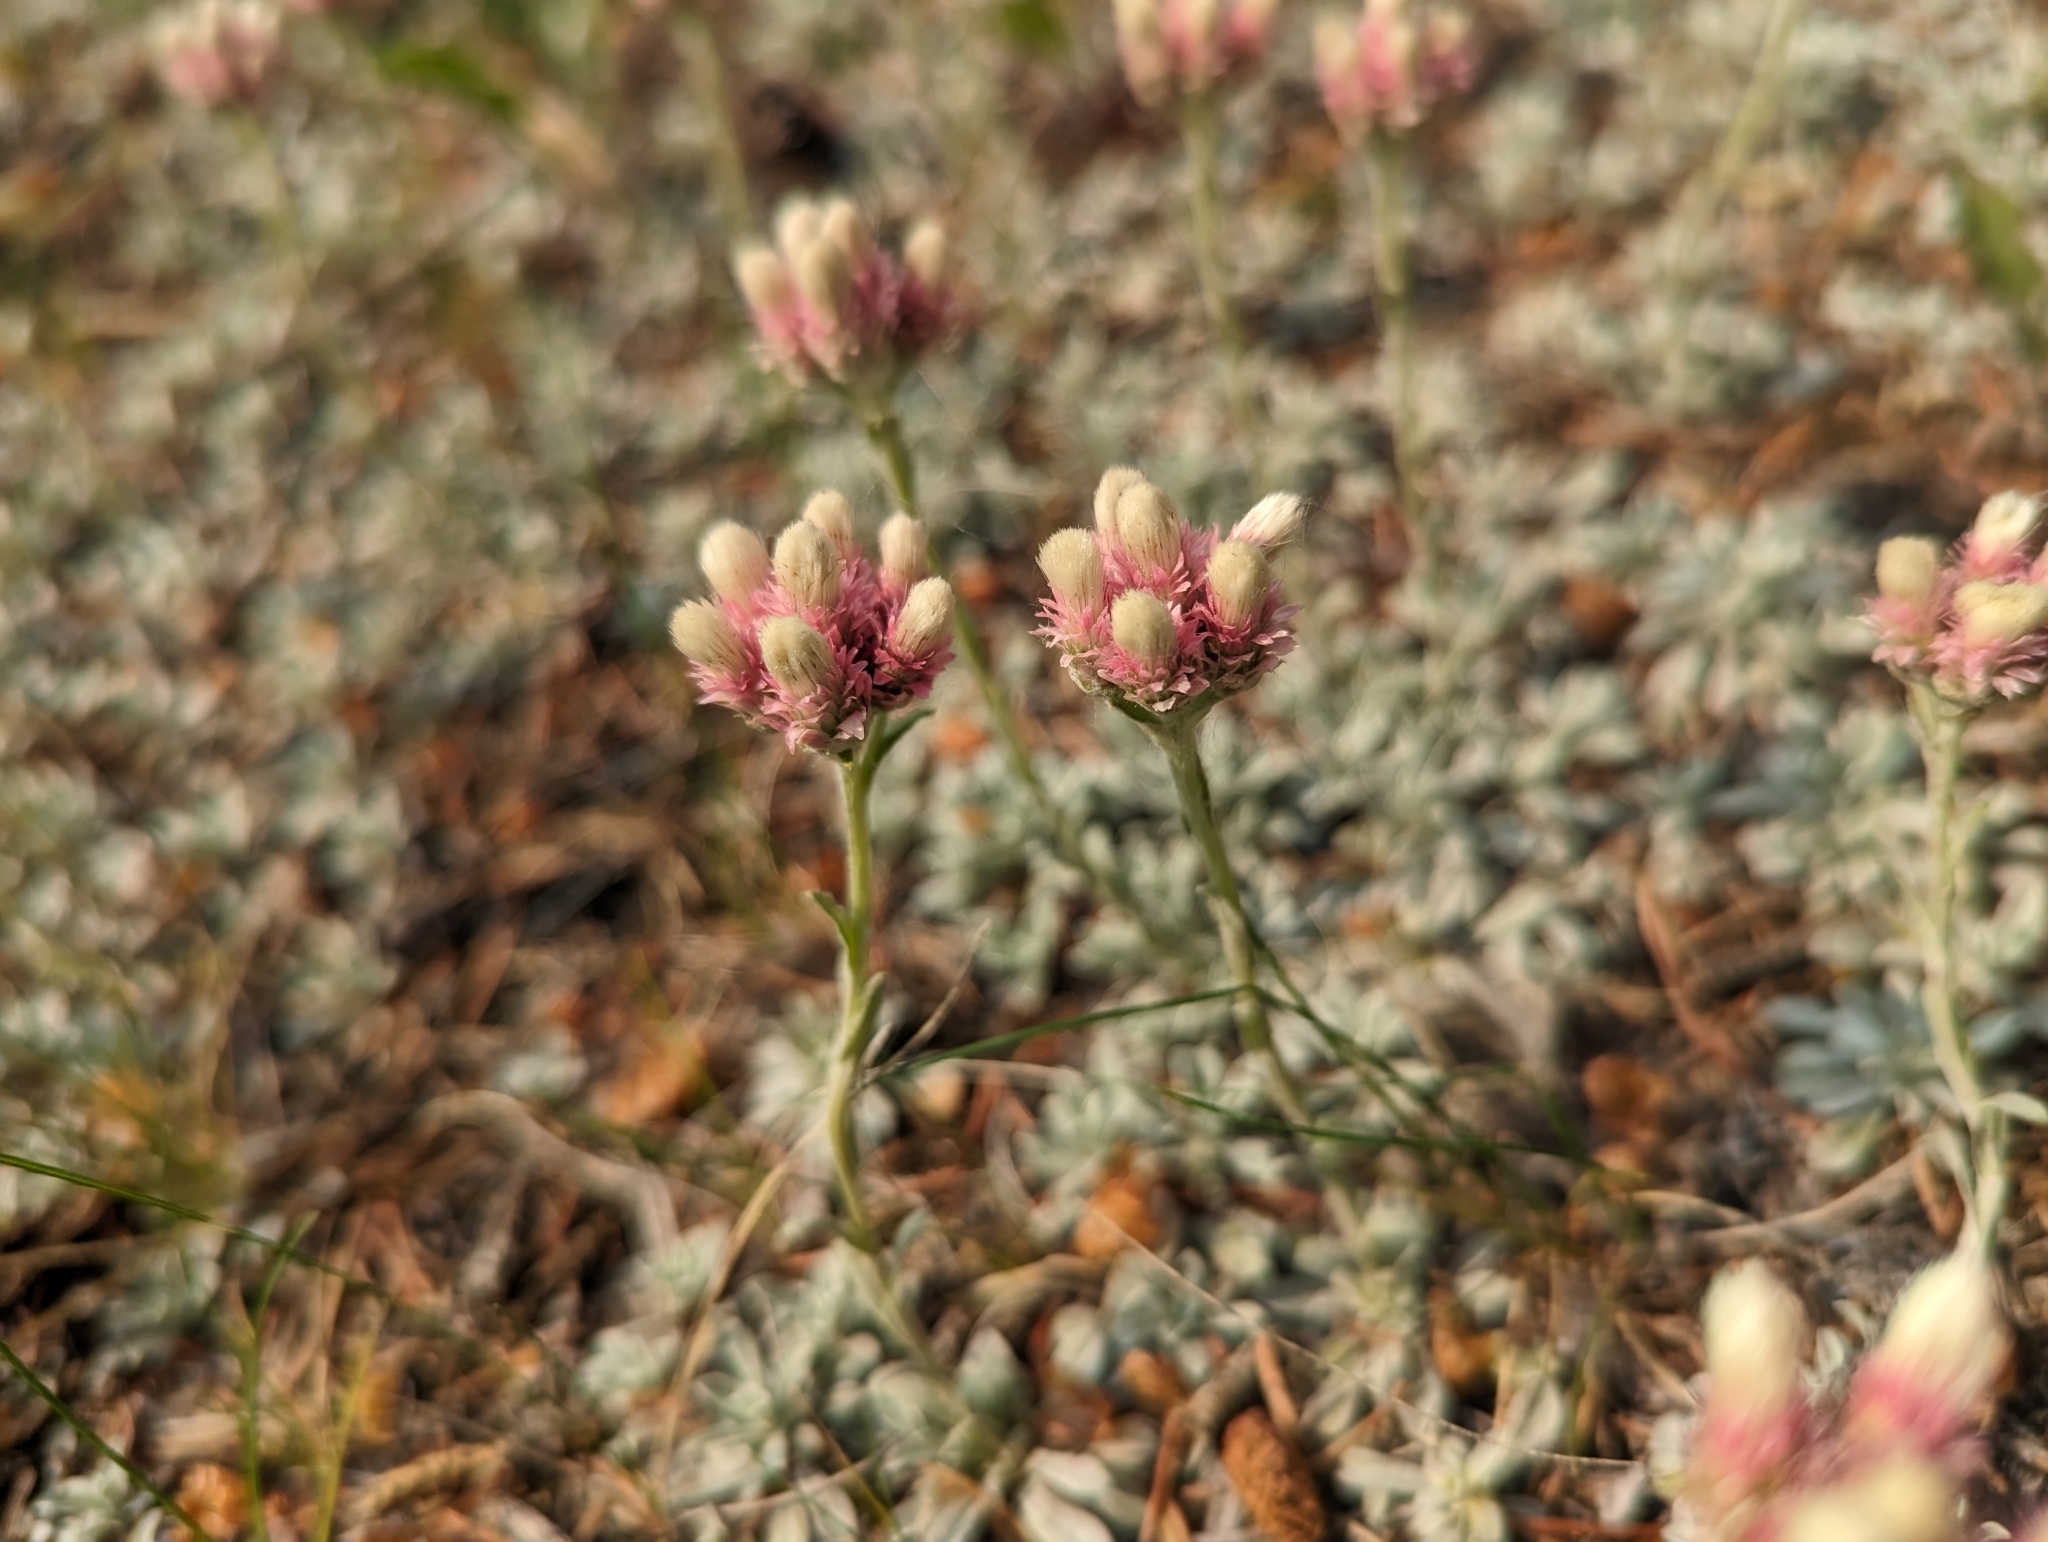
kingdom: Plantae
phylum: Tracheophyta
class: Magnoliopsida
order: Asterales
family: Asteraceae
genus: Antennaria
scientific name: Antennaria rosea
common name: Rosy pussytoes
